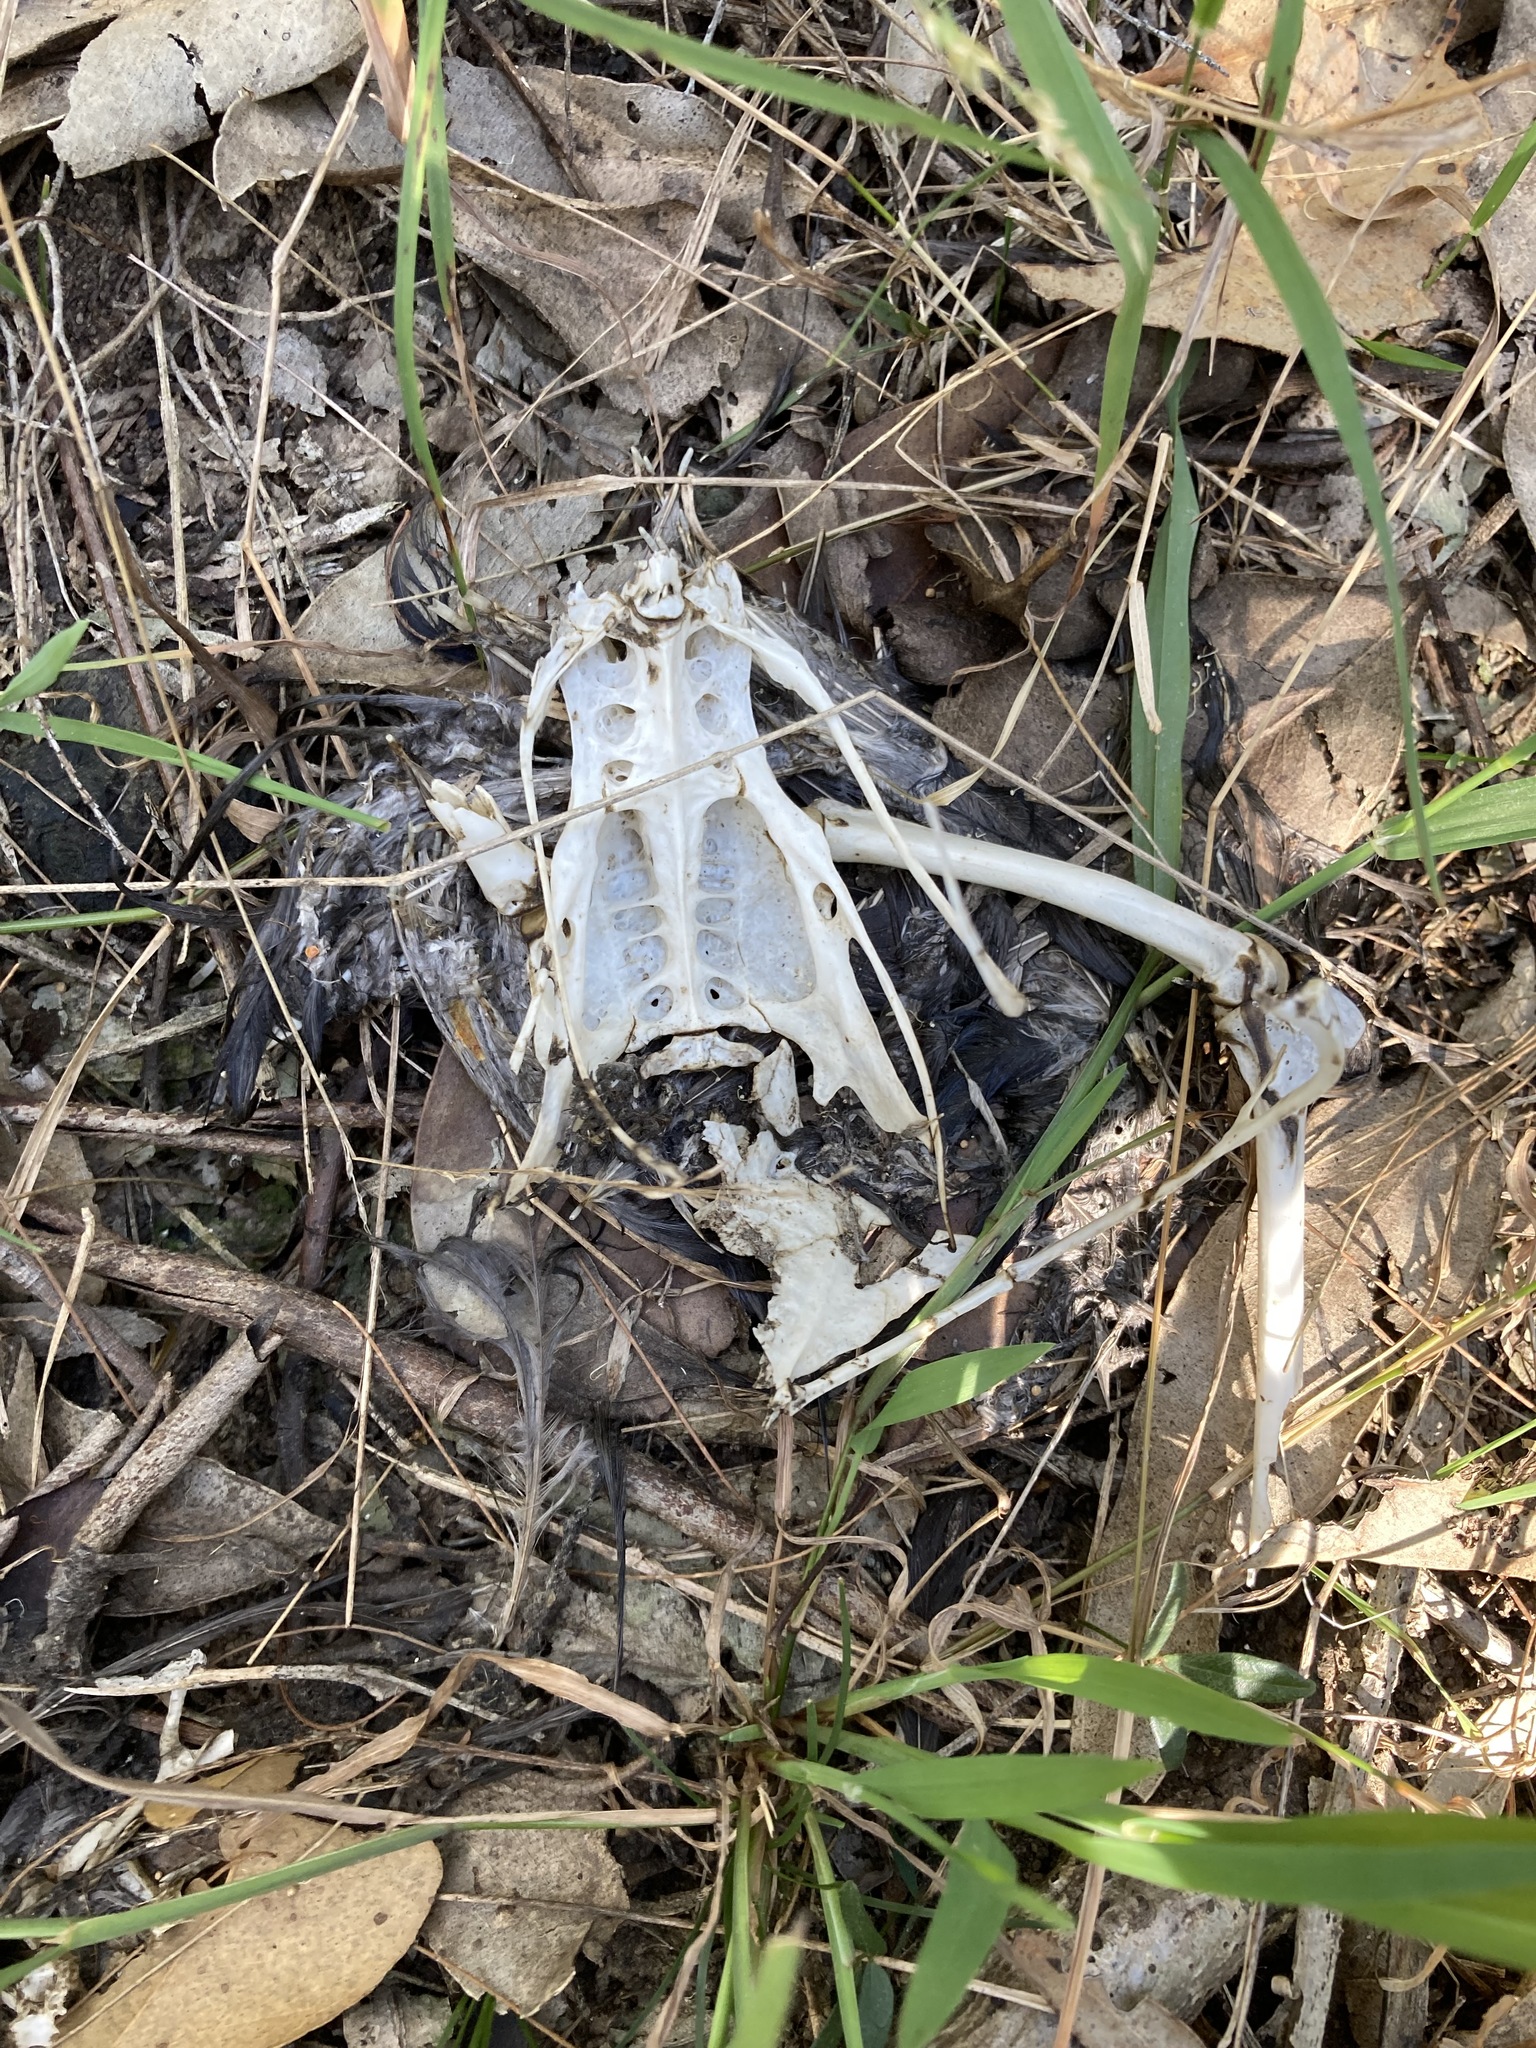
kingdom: Animalia
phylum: Chordata
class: Aves
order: Passeriformes
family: Corvidae
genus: Corvus
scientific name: Corvus coronoides
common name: Australian raven
